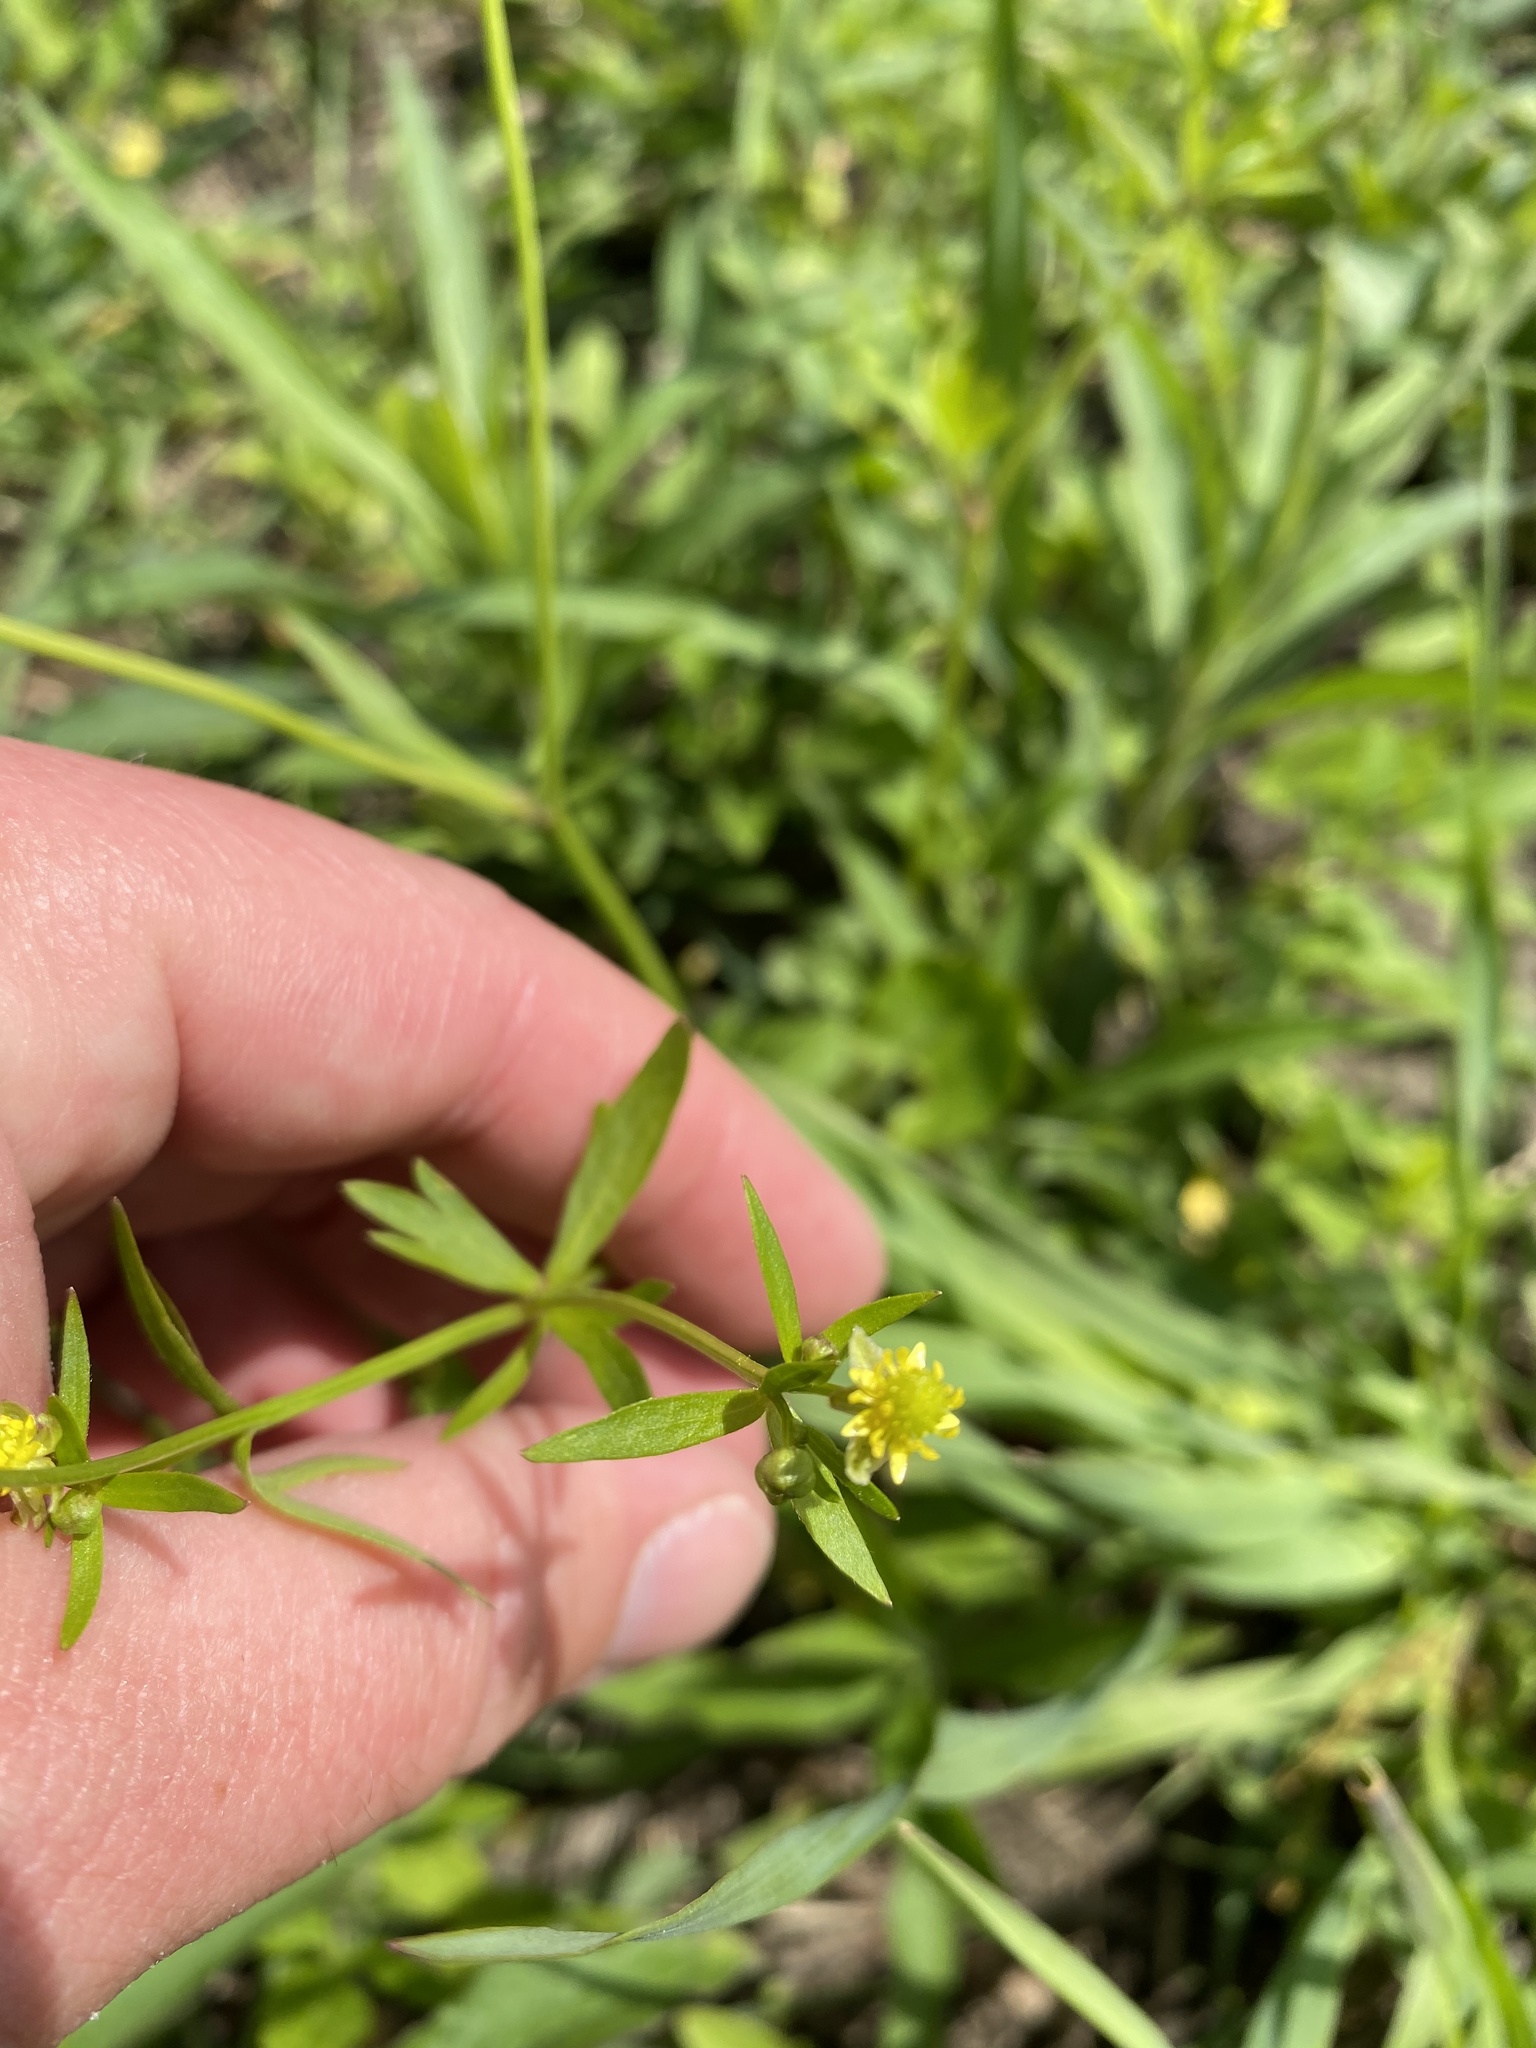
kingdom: Plantae
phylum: Tracheophyta
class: Magnoliopsida
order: Ranunculales
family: Ranunculaceae
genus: Ranunculus
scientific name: Ranunculus abortivus
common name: Early wood buttercup
